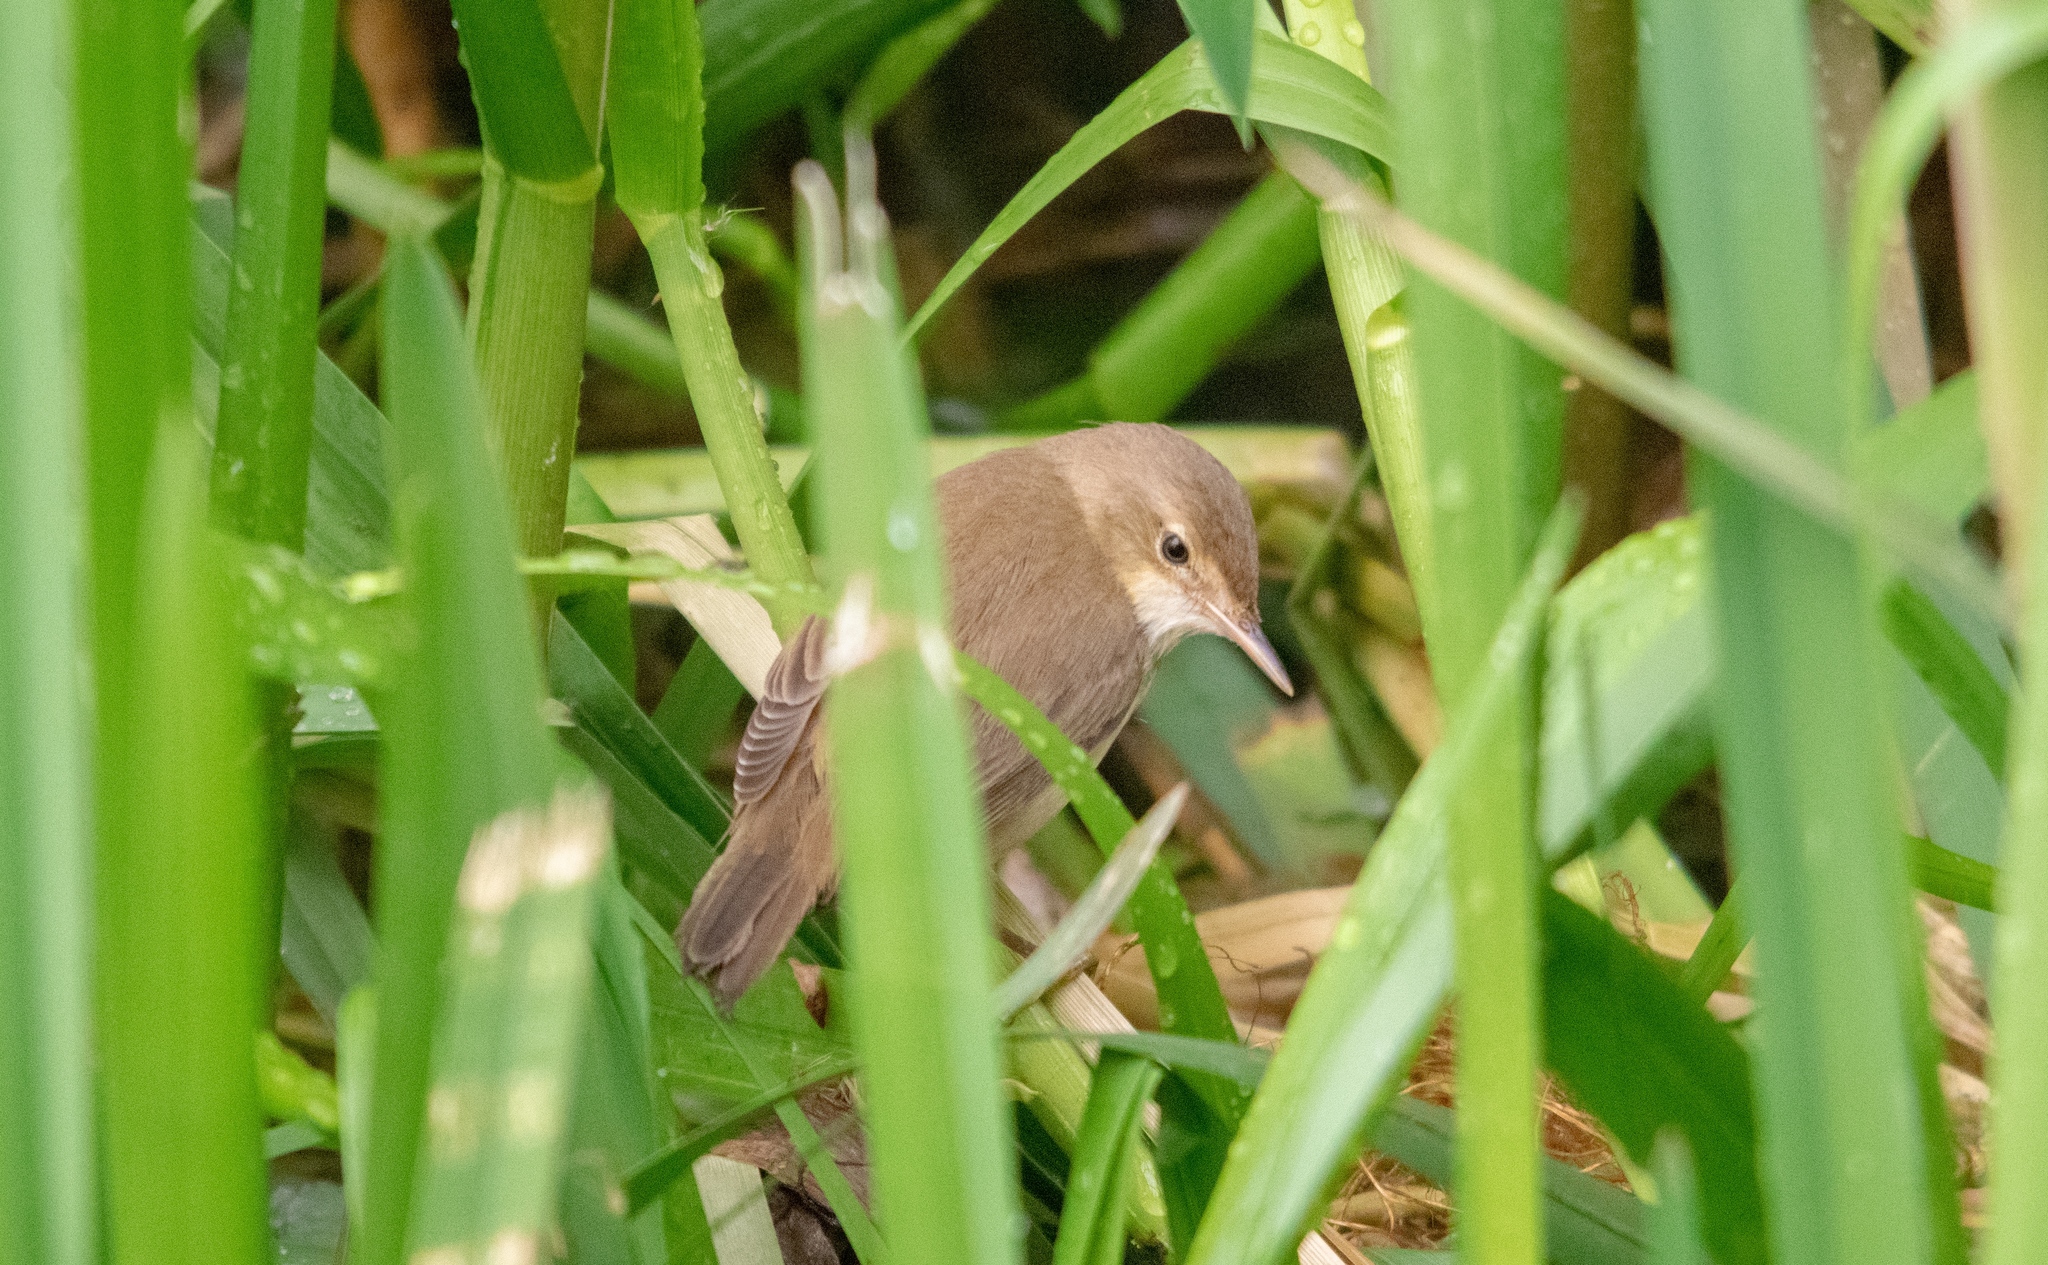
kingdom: Animalia
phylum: Chordata
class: Aves
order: Passeriformes
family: Acrocephalidae
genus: Acrocephalus
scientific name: Acrocephalus scirpaceus
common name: Eurasian reed warbler
